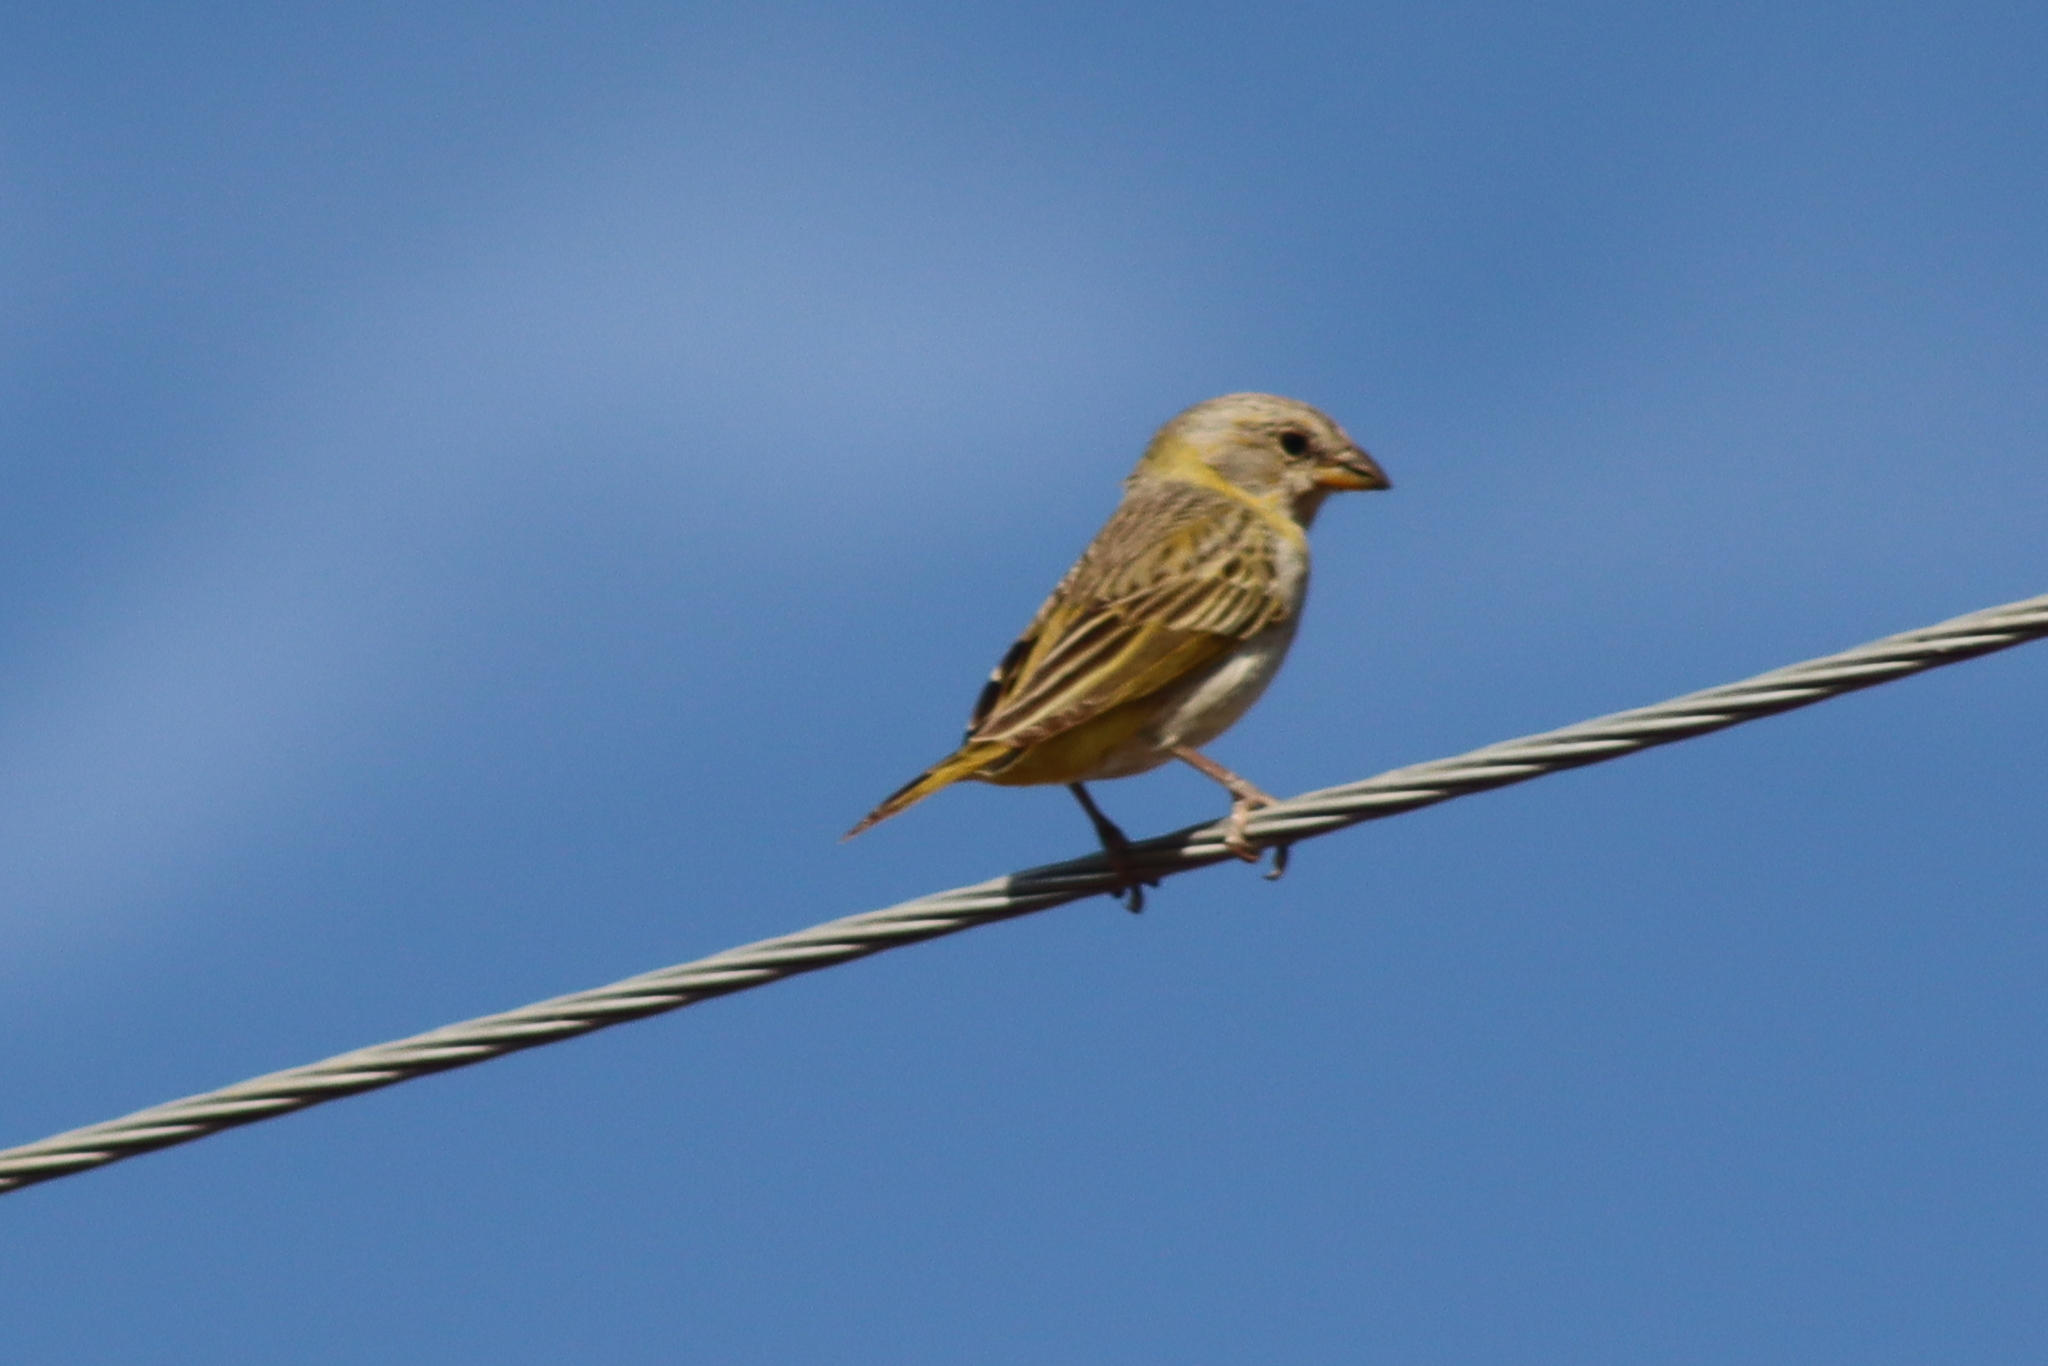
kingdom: Animalia
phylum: Chordata
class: Aves
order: Passeriformes
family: Thraupidae
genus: Sicalis
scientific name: Sicalis flaveola
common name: Saffron finch
